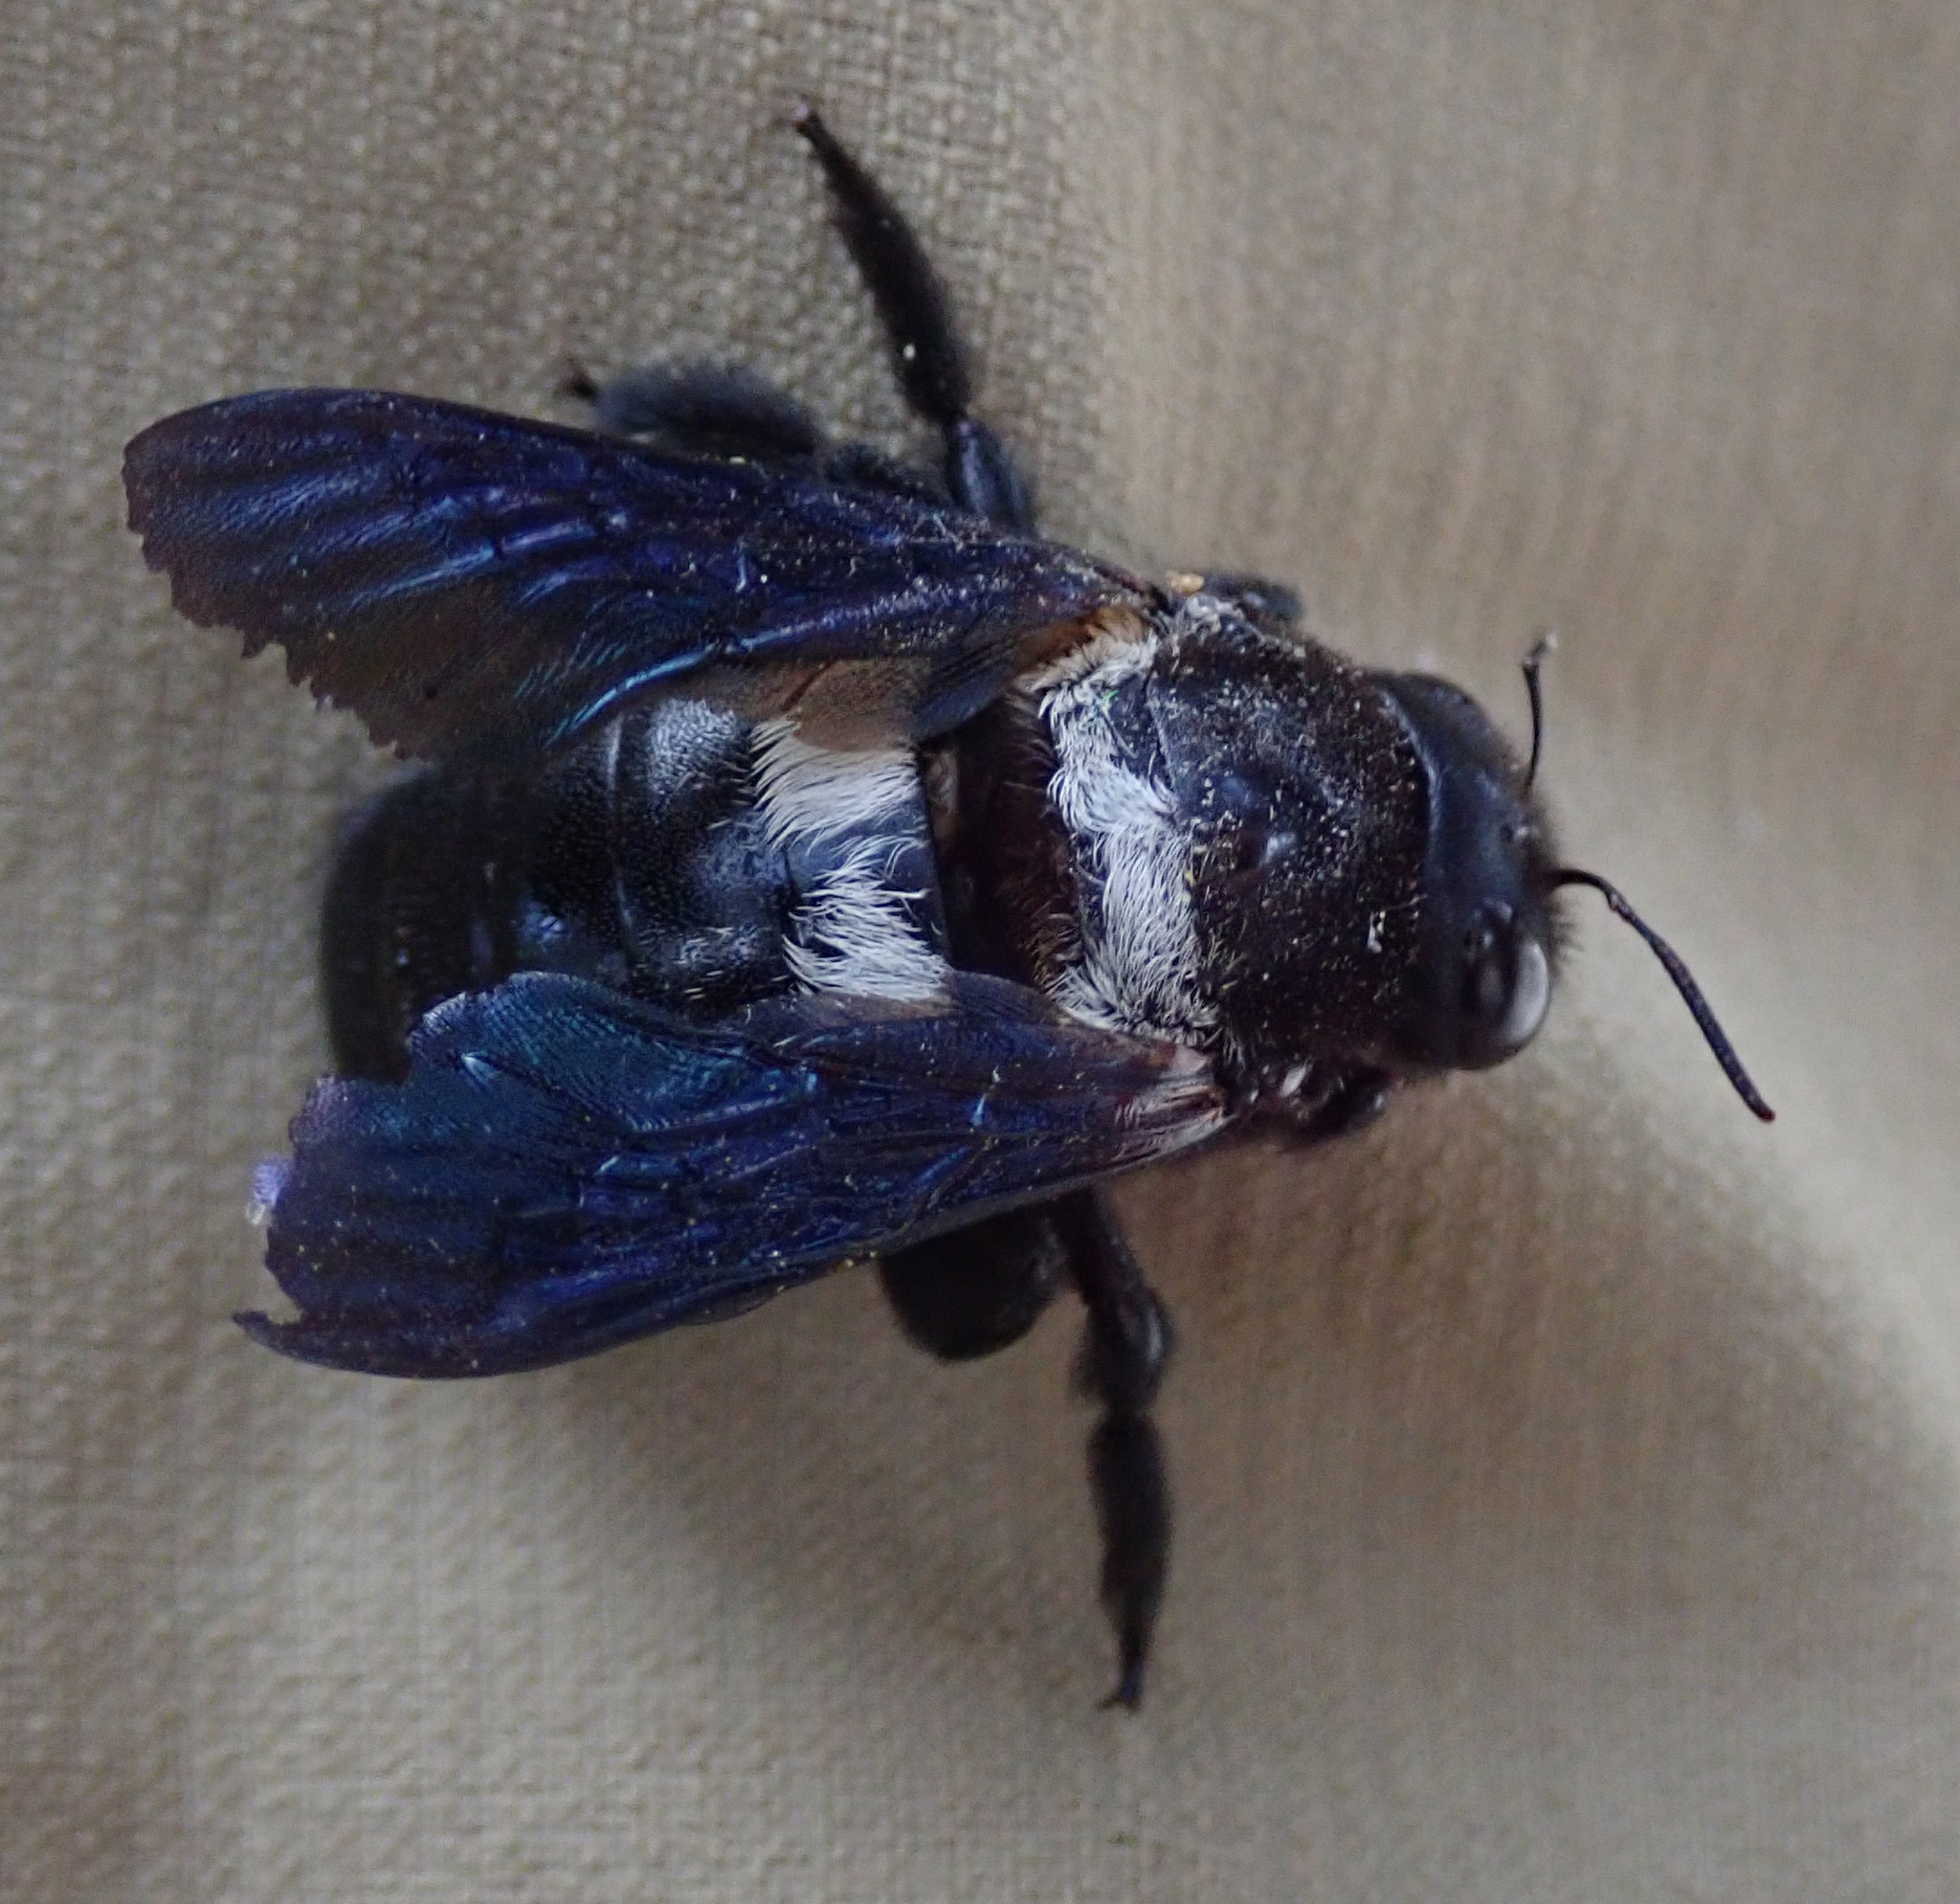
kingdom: Animalia
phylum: Arthropoda
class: Insecta
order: Hymenoptera
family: Apidae
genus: Xylocopa
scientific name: Xylocopa caffra
